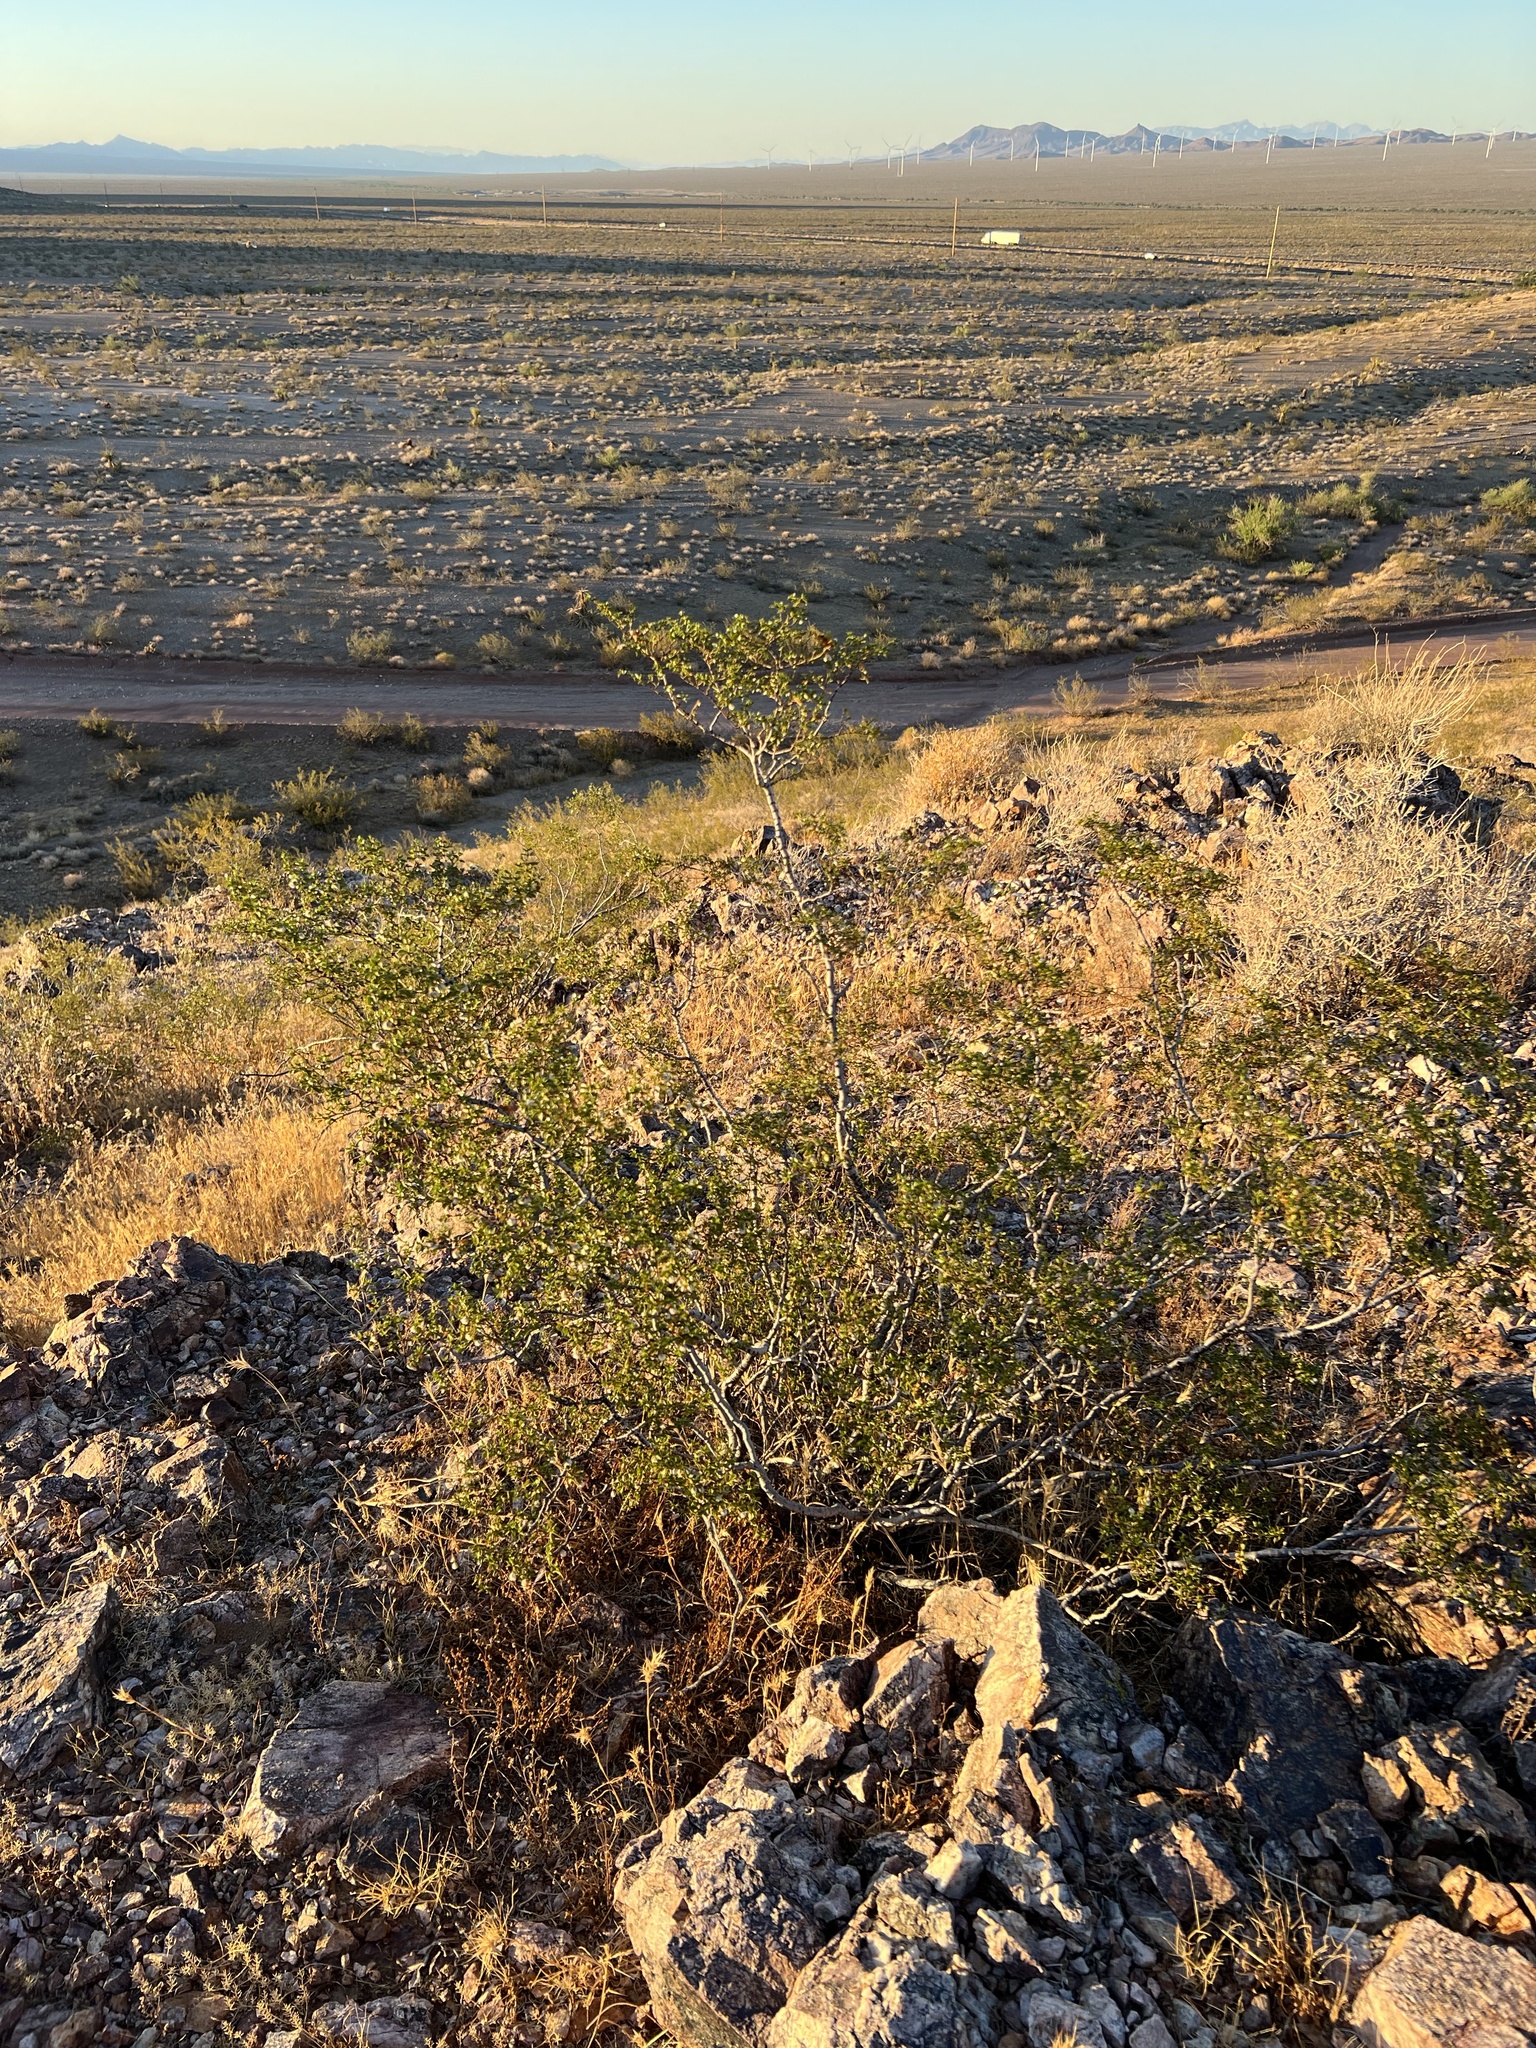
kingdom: Plantae
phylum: Tracheophyta
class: Magnoliopsida
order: Zygophyllales
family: Zygophyllaceae
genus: Larrea
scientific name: Larrea tridentata
